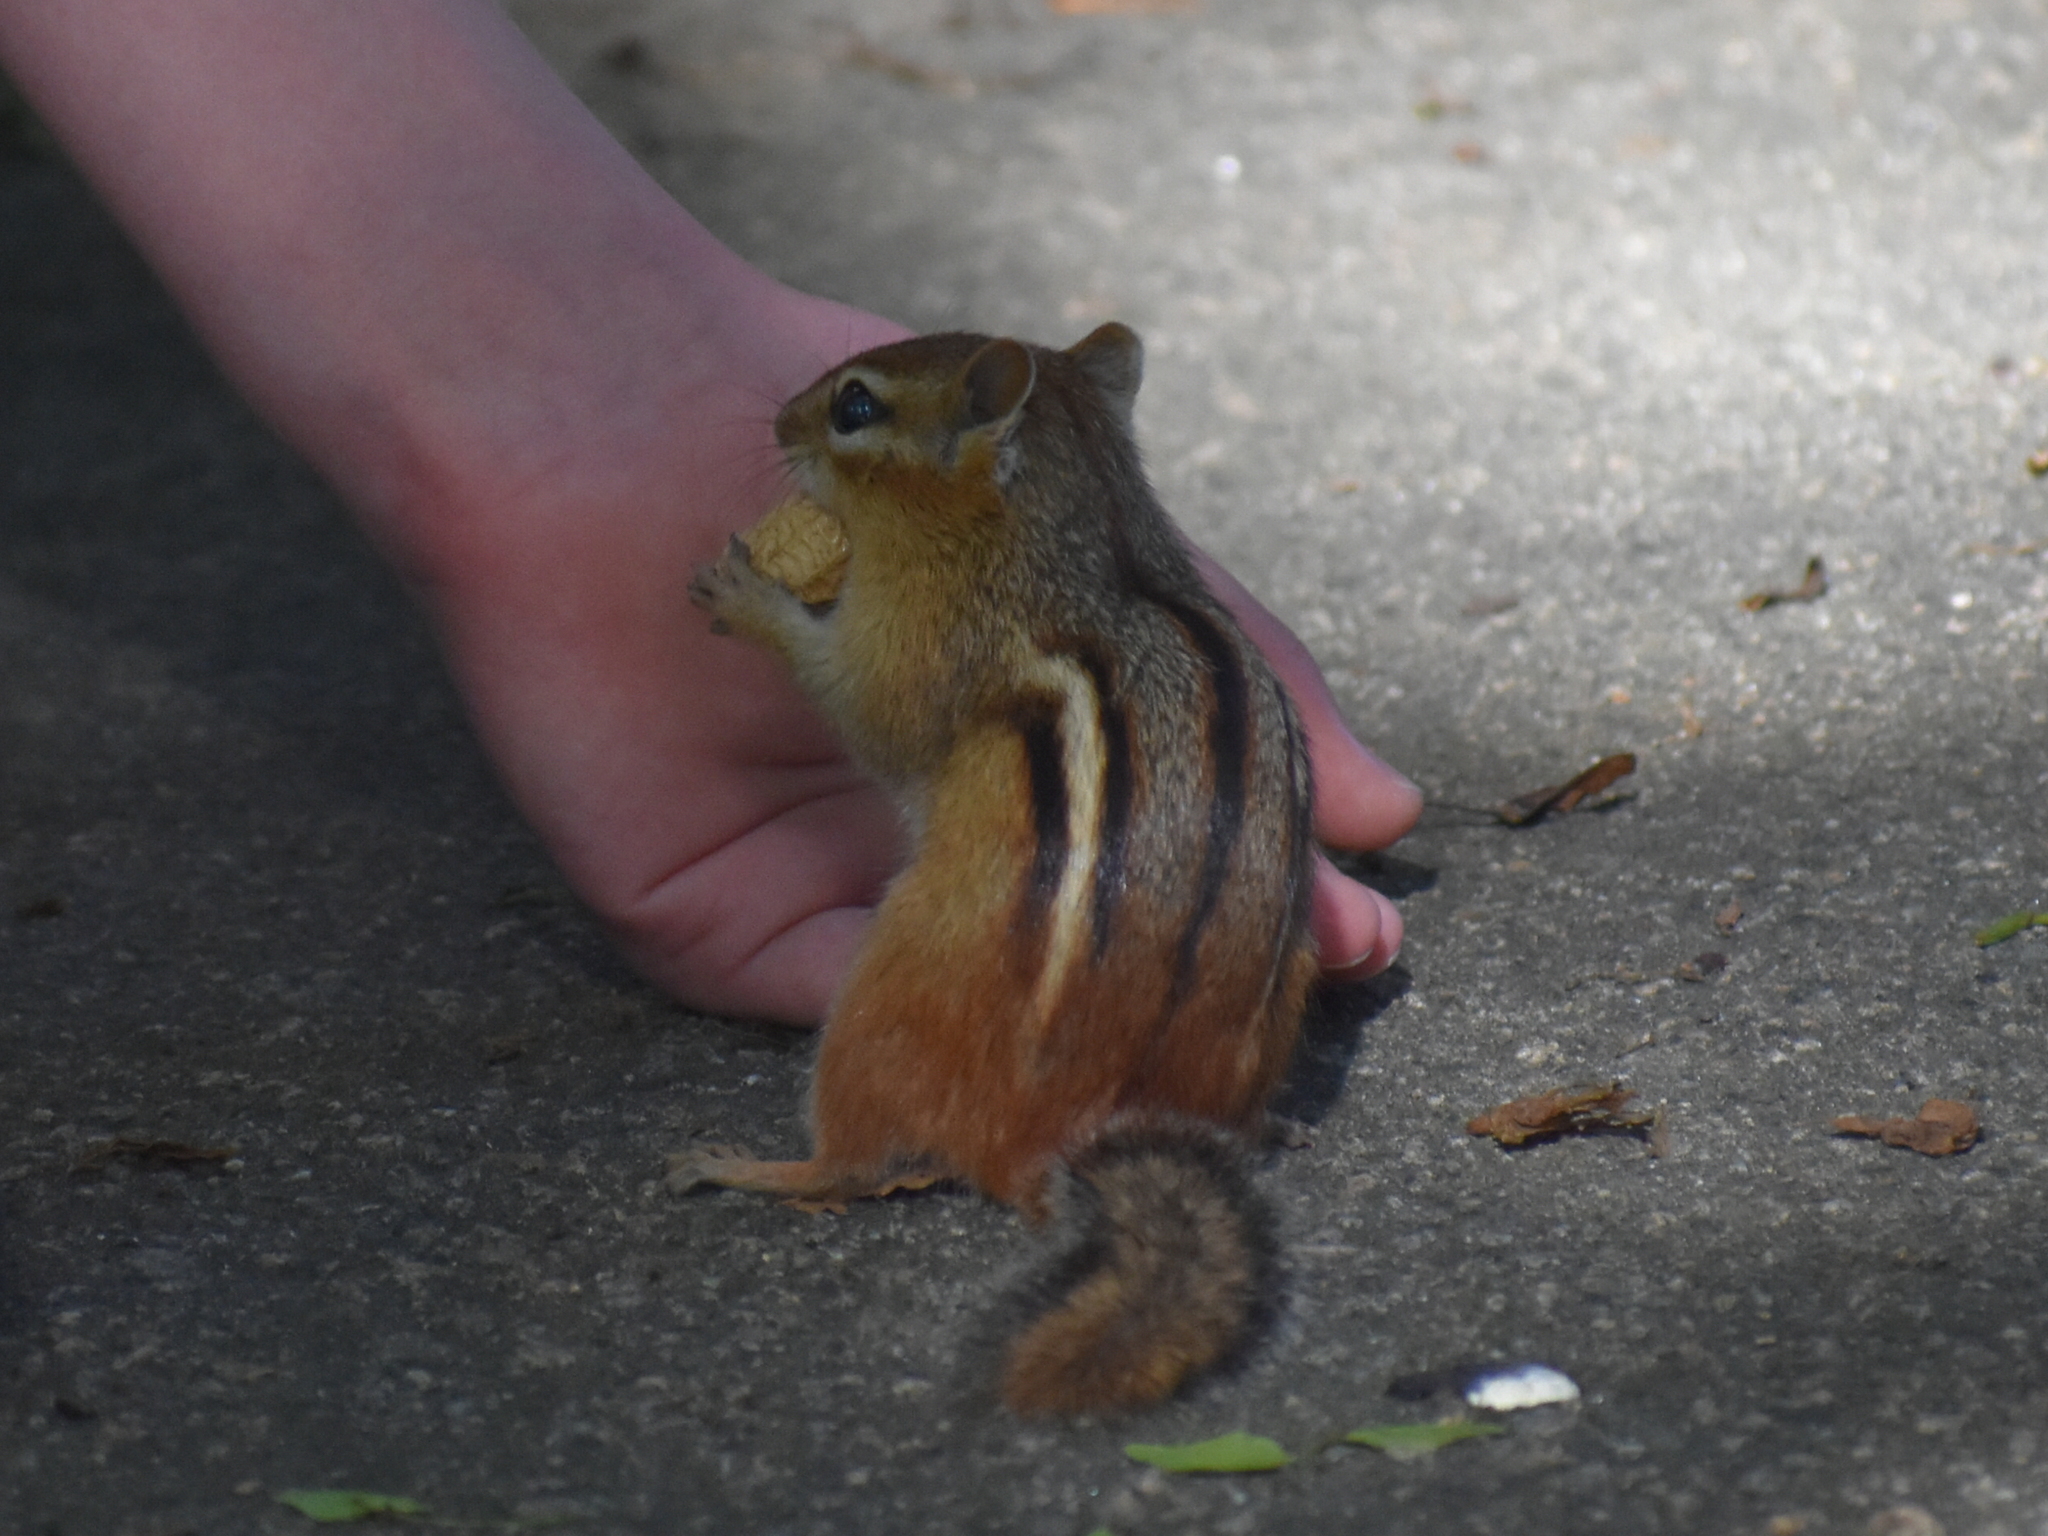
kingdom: Animalia
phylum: Chordata
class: Mammalia
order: Rodentia
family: Sciuridae
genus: Tamias
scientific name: Tamias striatus
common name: Eastern chipmunk
